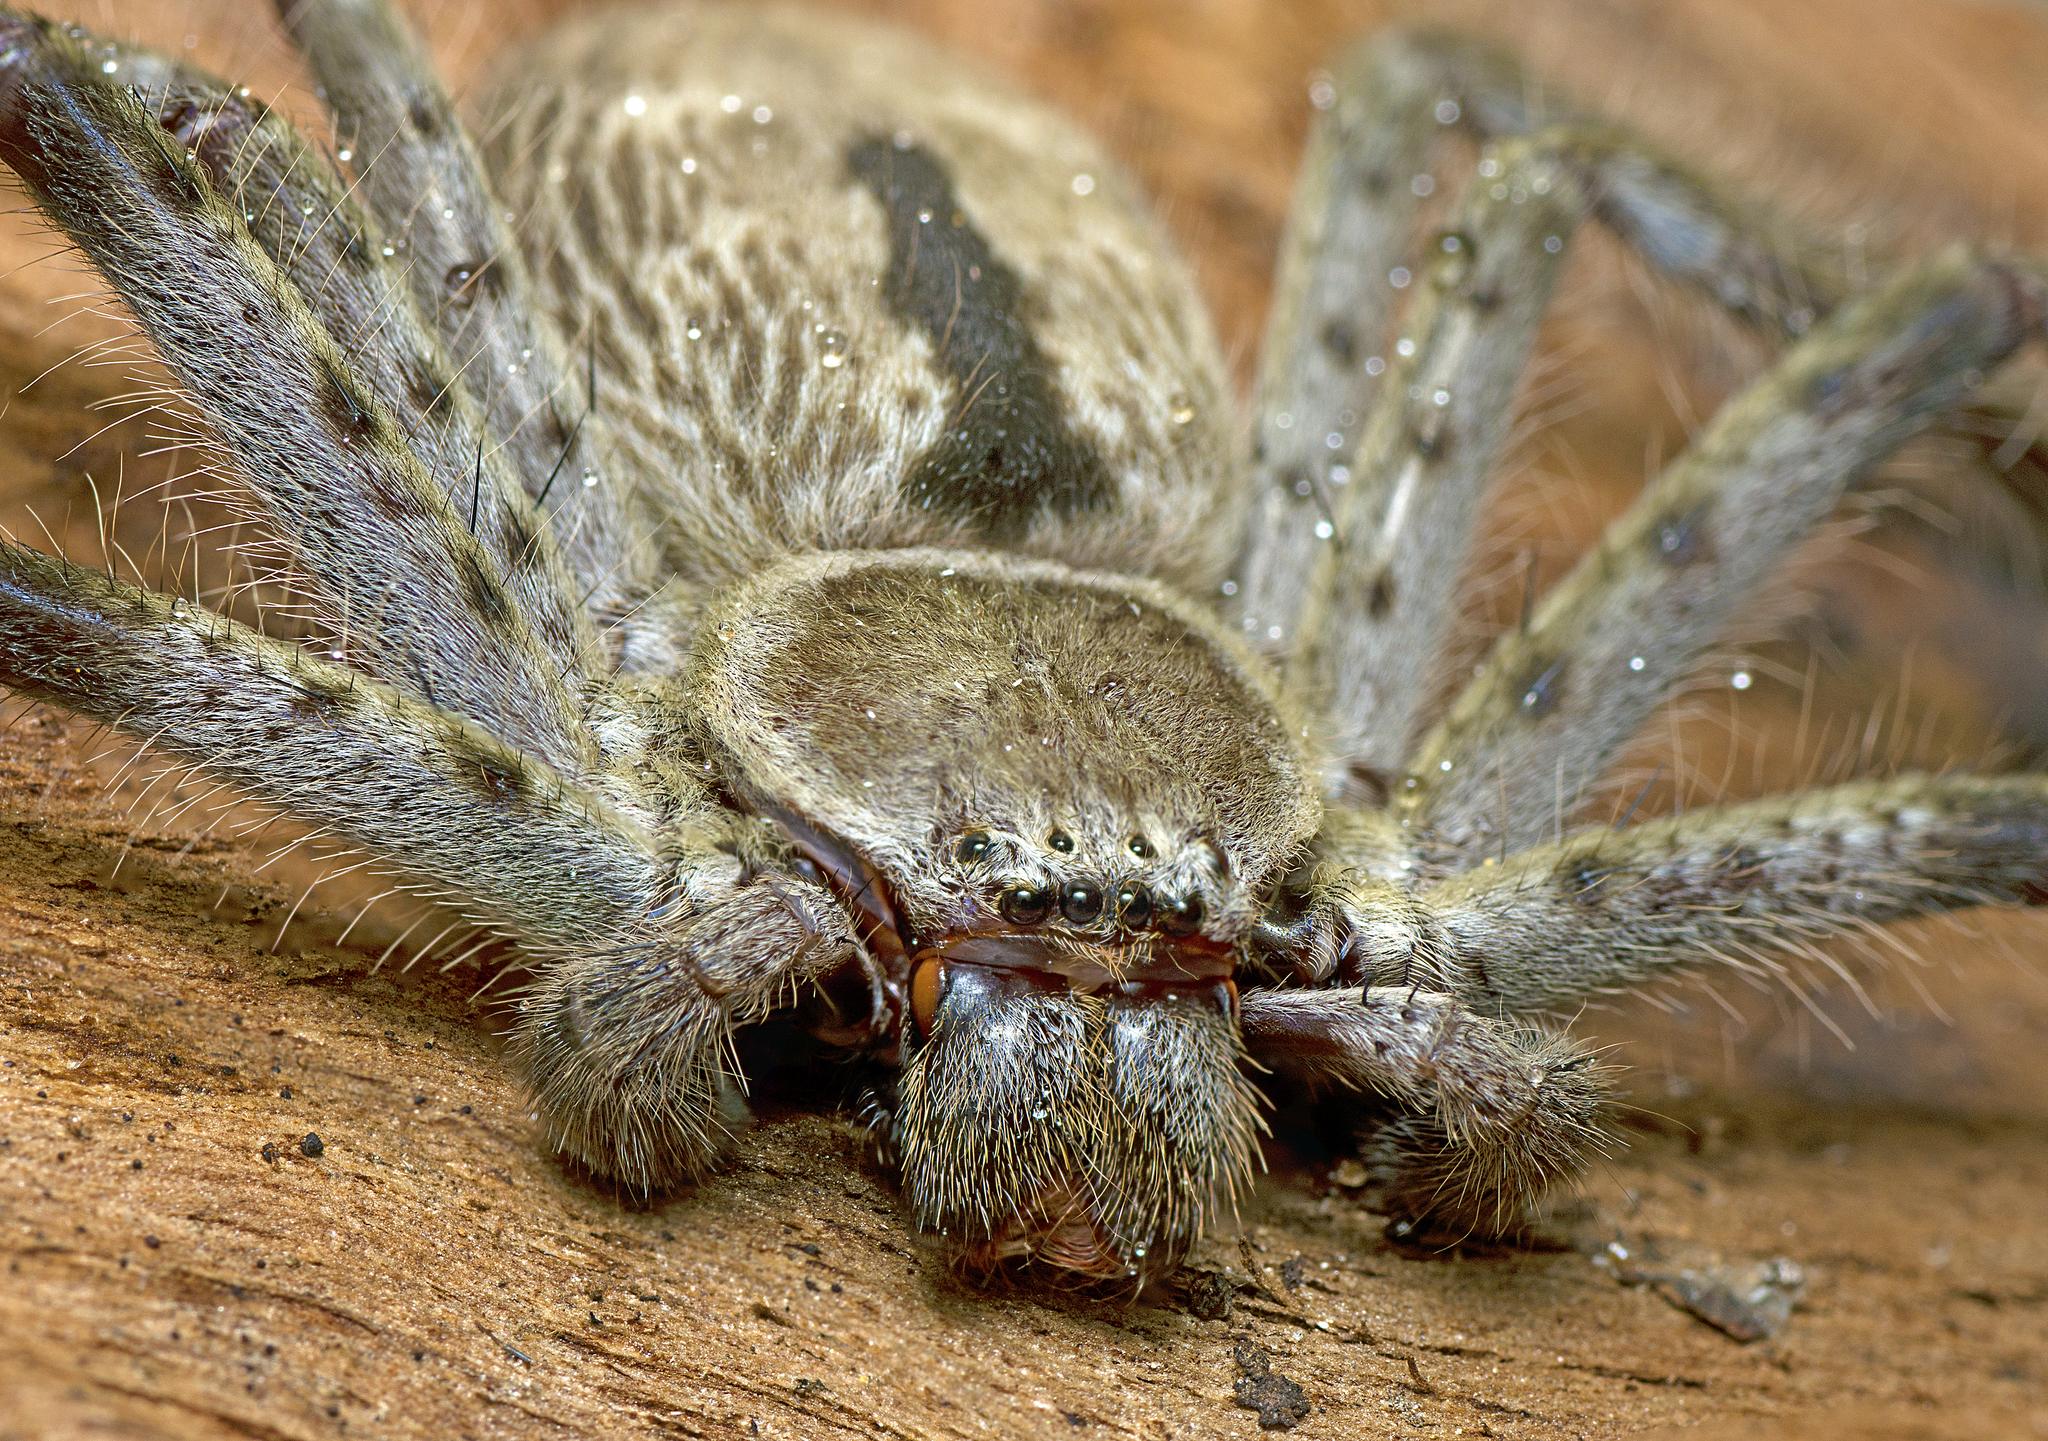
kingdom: Animalia
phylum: Arthropoda
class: Arachnida
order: Araneae
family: Sparassidae
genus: Holconia
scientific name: Holconia immanis
